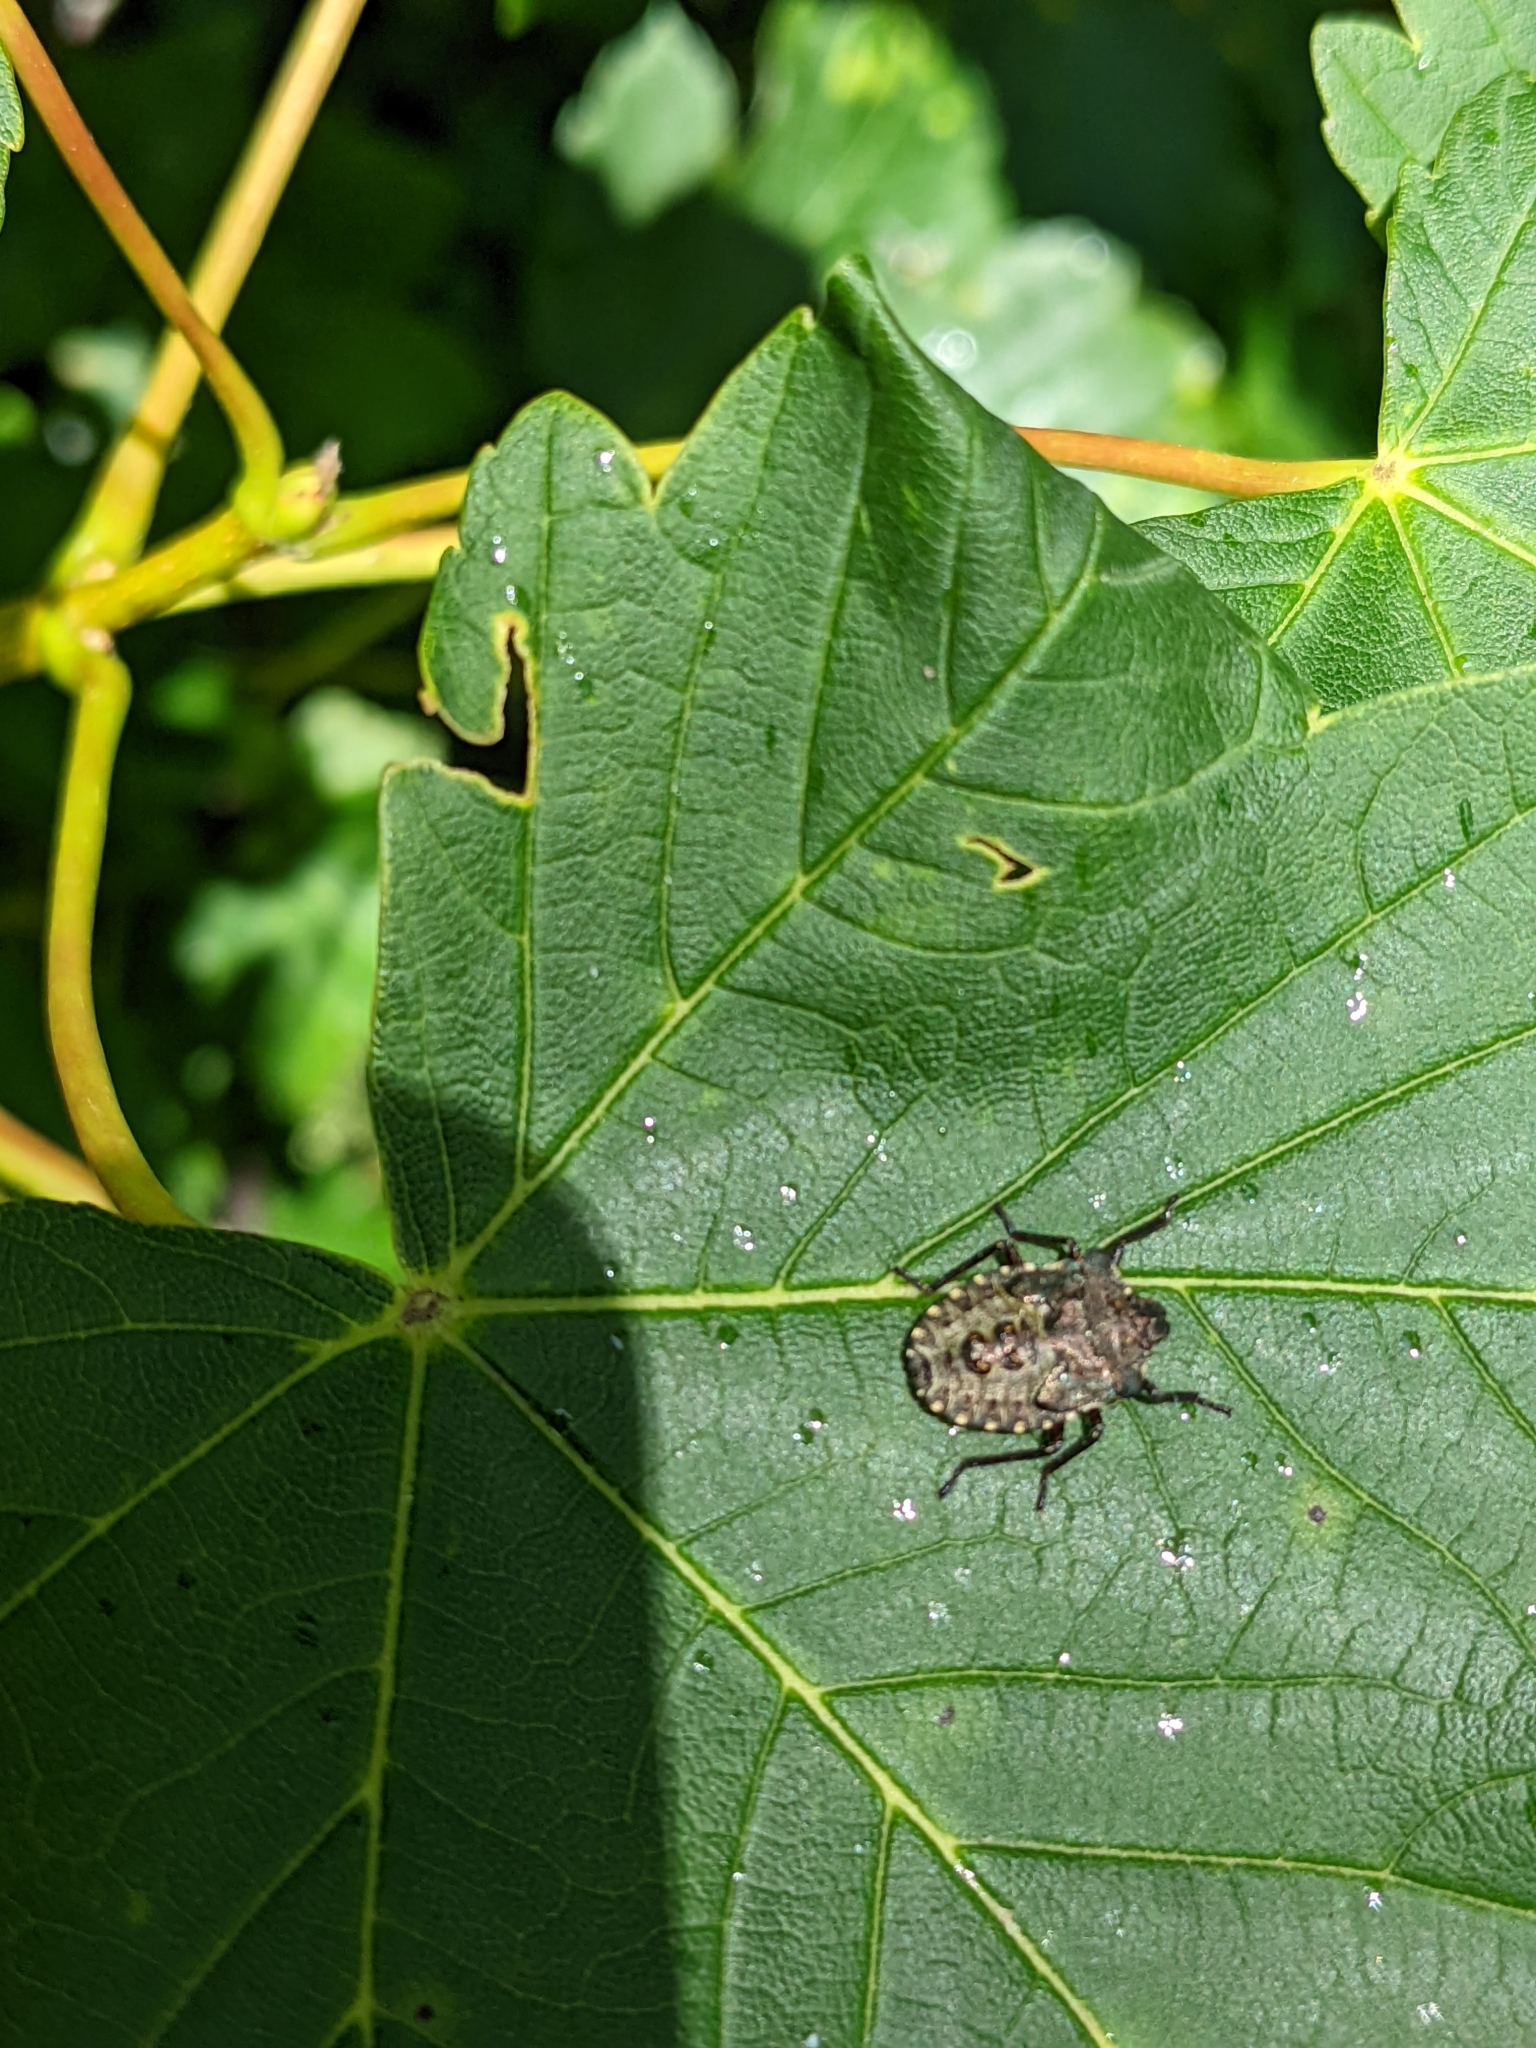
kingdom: Animalia
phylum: Arthropoda
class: Insecta
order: Hemiptera
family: Pentatomidae
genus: Pentatoma
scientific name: Pentatoma rufipes
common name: Forest bug
